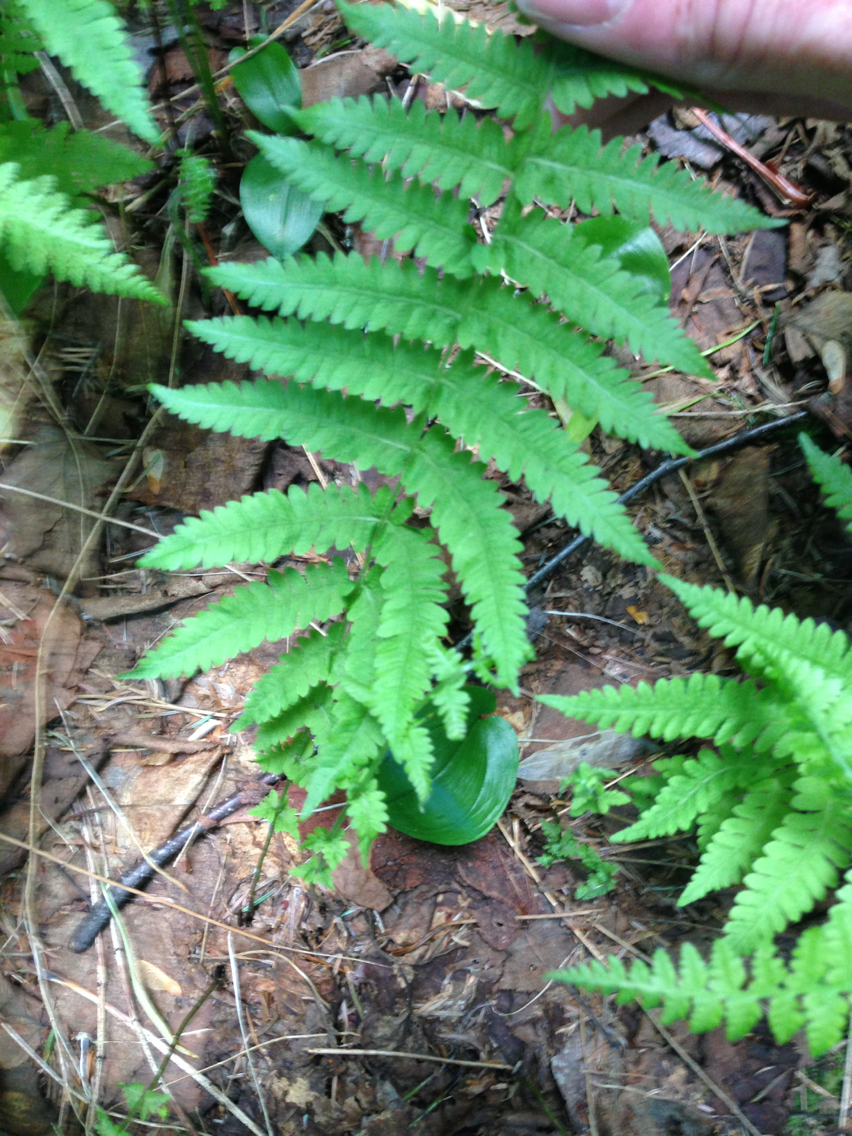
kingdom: Plantae
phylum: Tracheophyta
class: Polypodiopsida
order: Polypodiales
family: Thelypteridaceae
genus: Amauropelta
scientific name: Amauropelta noveboracensis
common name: New york fern
